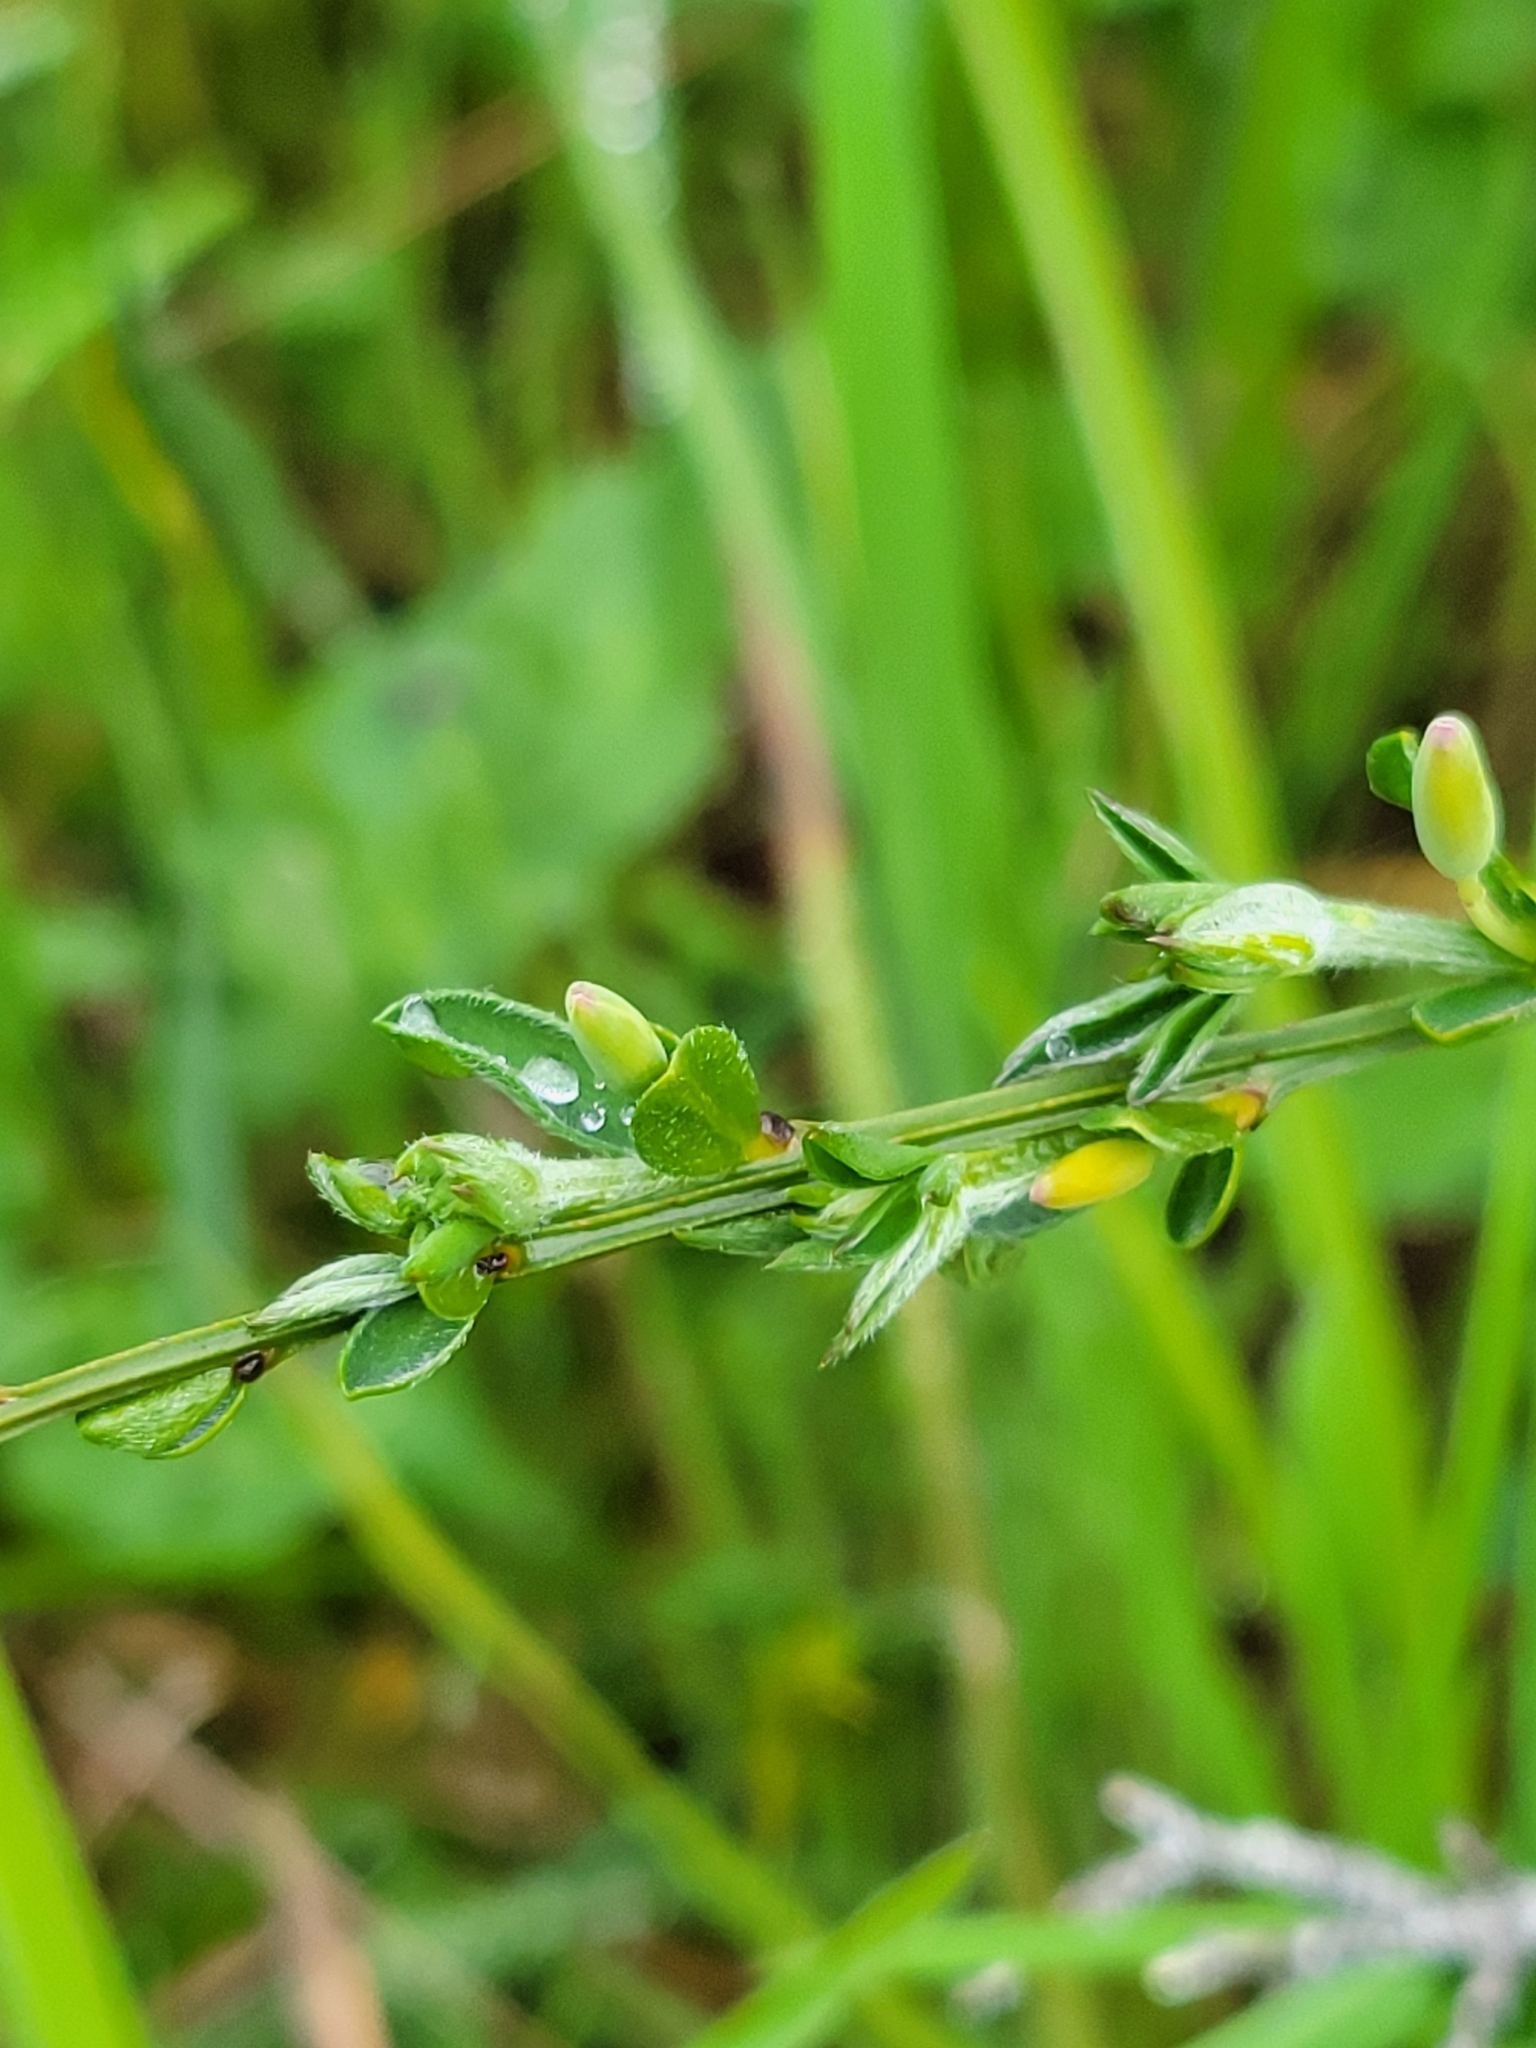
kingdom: Plantae
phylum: Tracheophyta
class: Magnoliopsida
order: Fabales
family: Fabaceae
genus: Cytisus
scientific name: Cytisus scoparius
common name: Scotch broom
